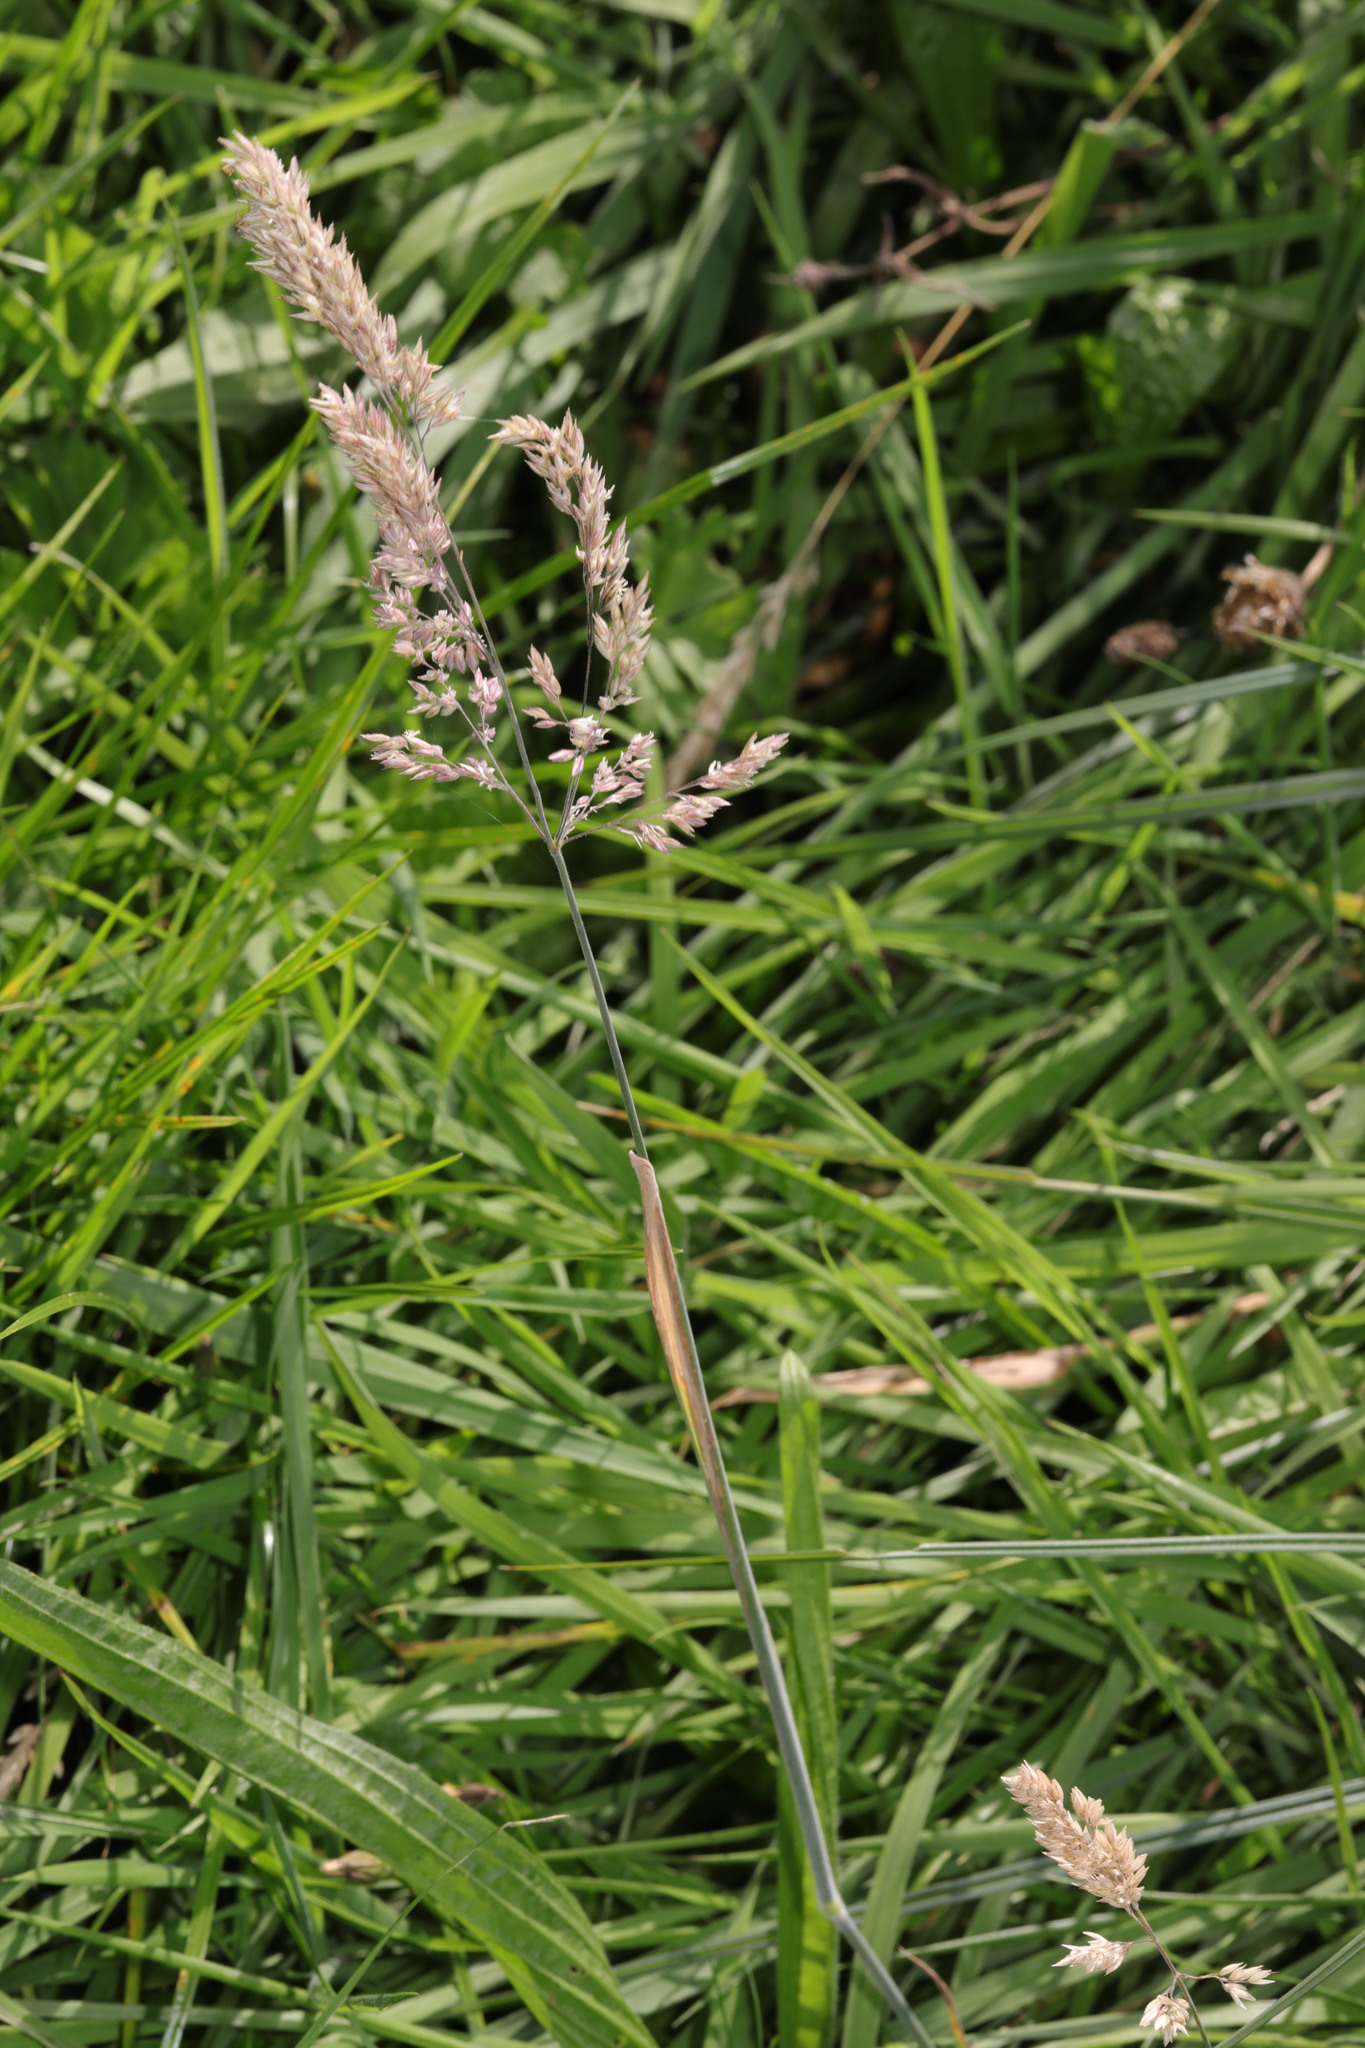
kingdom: Plantae
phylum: Tracheophyta
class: Liliopsida
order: Poales
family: Poaceae
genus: Holcus
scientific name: Holcus lanatus
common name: Yorkshire-fog
